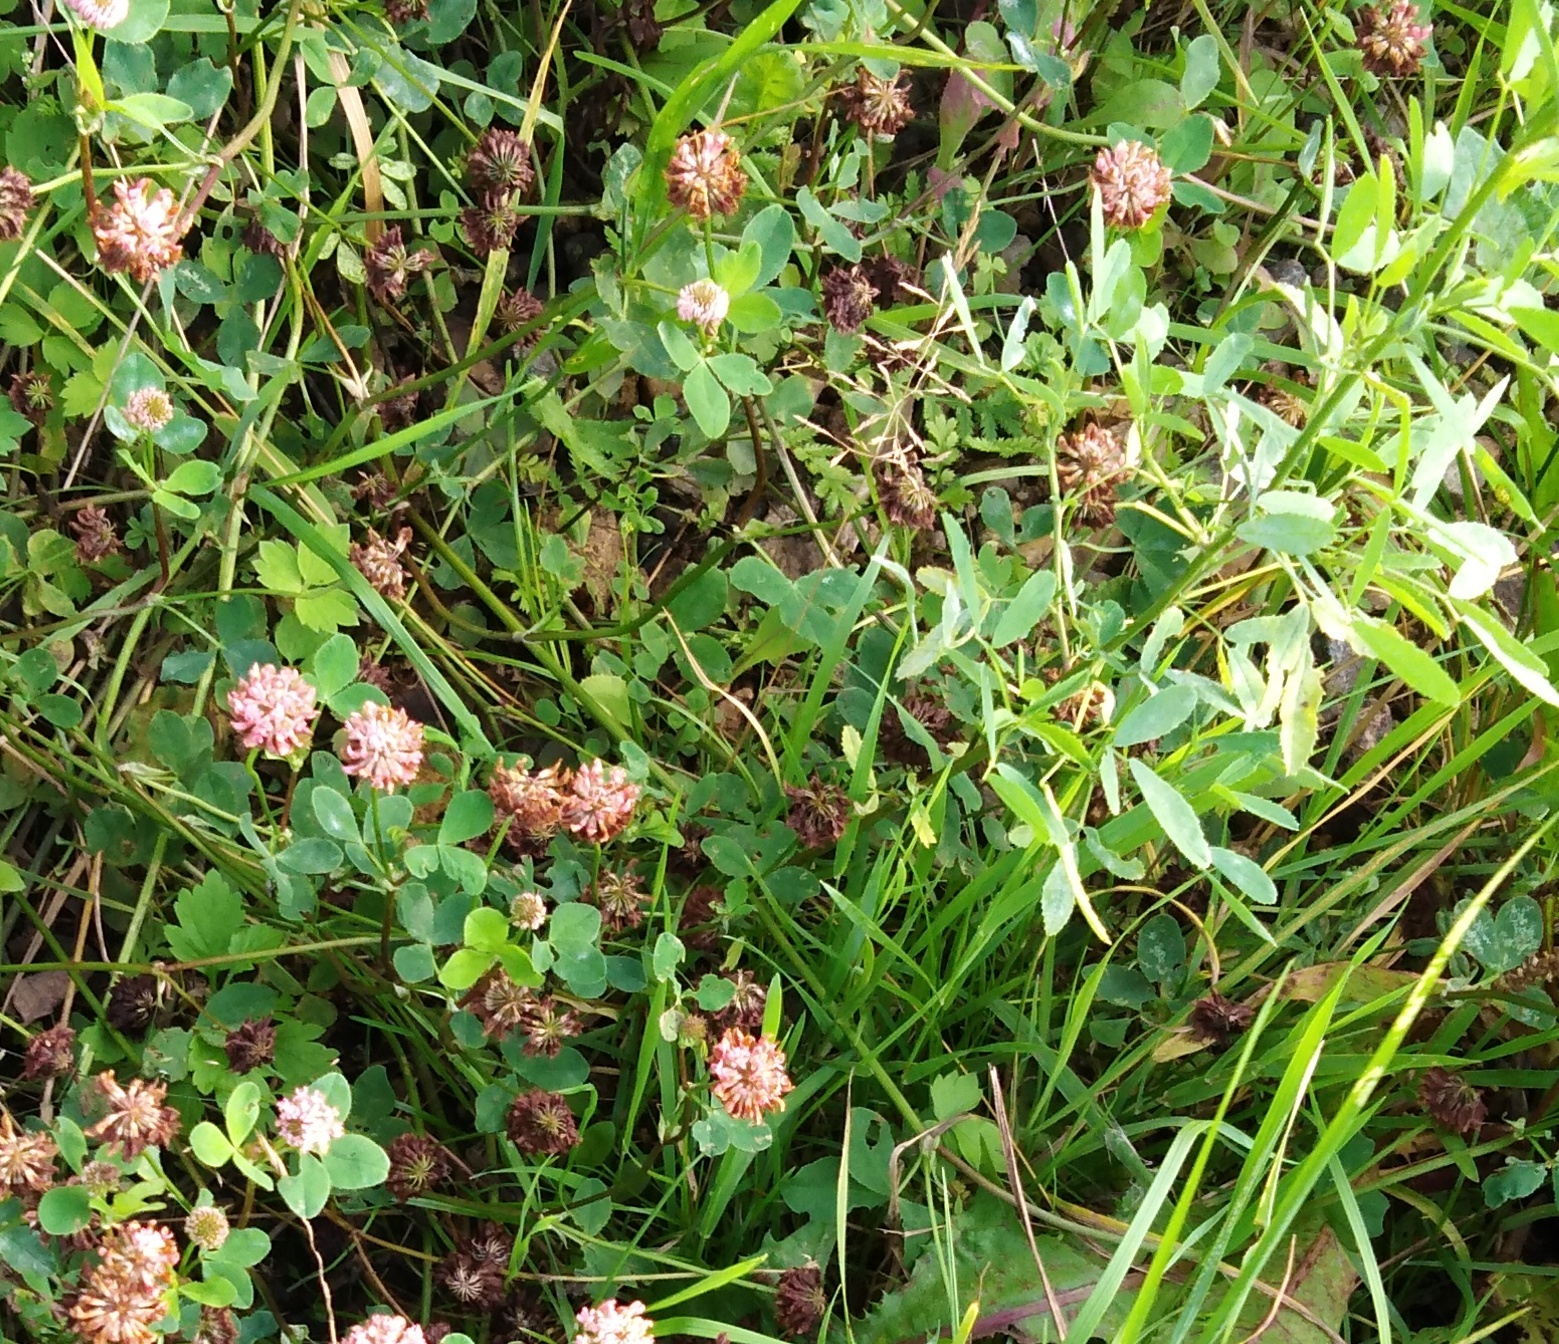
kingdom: Plantae
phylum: Tracheophyta
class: Magnoliopsida
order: Fabales
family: Fabaceae
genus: Trifolium
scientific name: Trifolium hybridum
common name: Alsike clover
